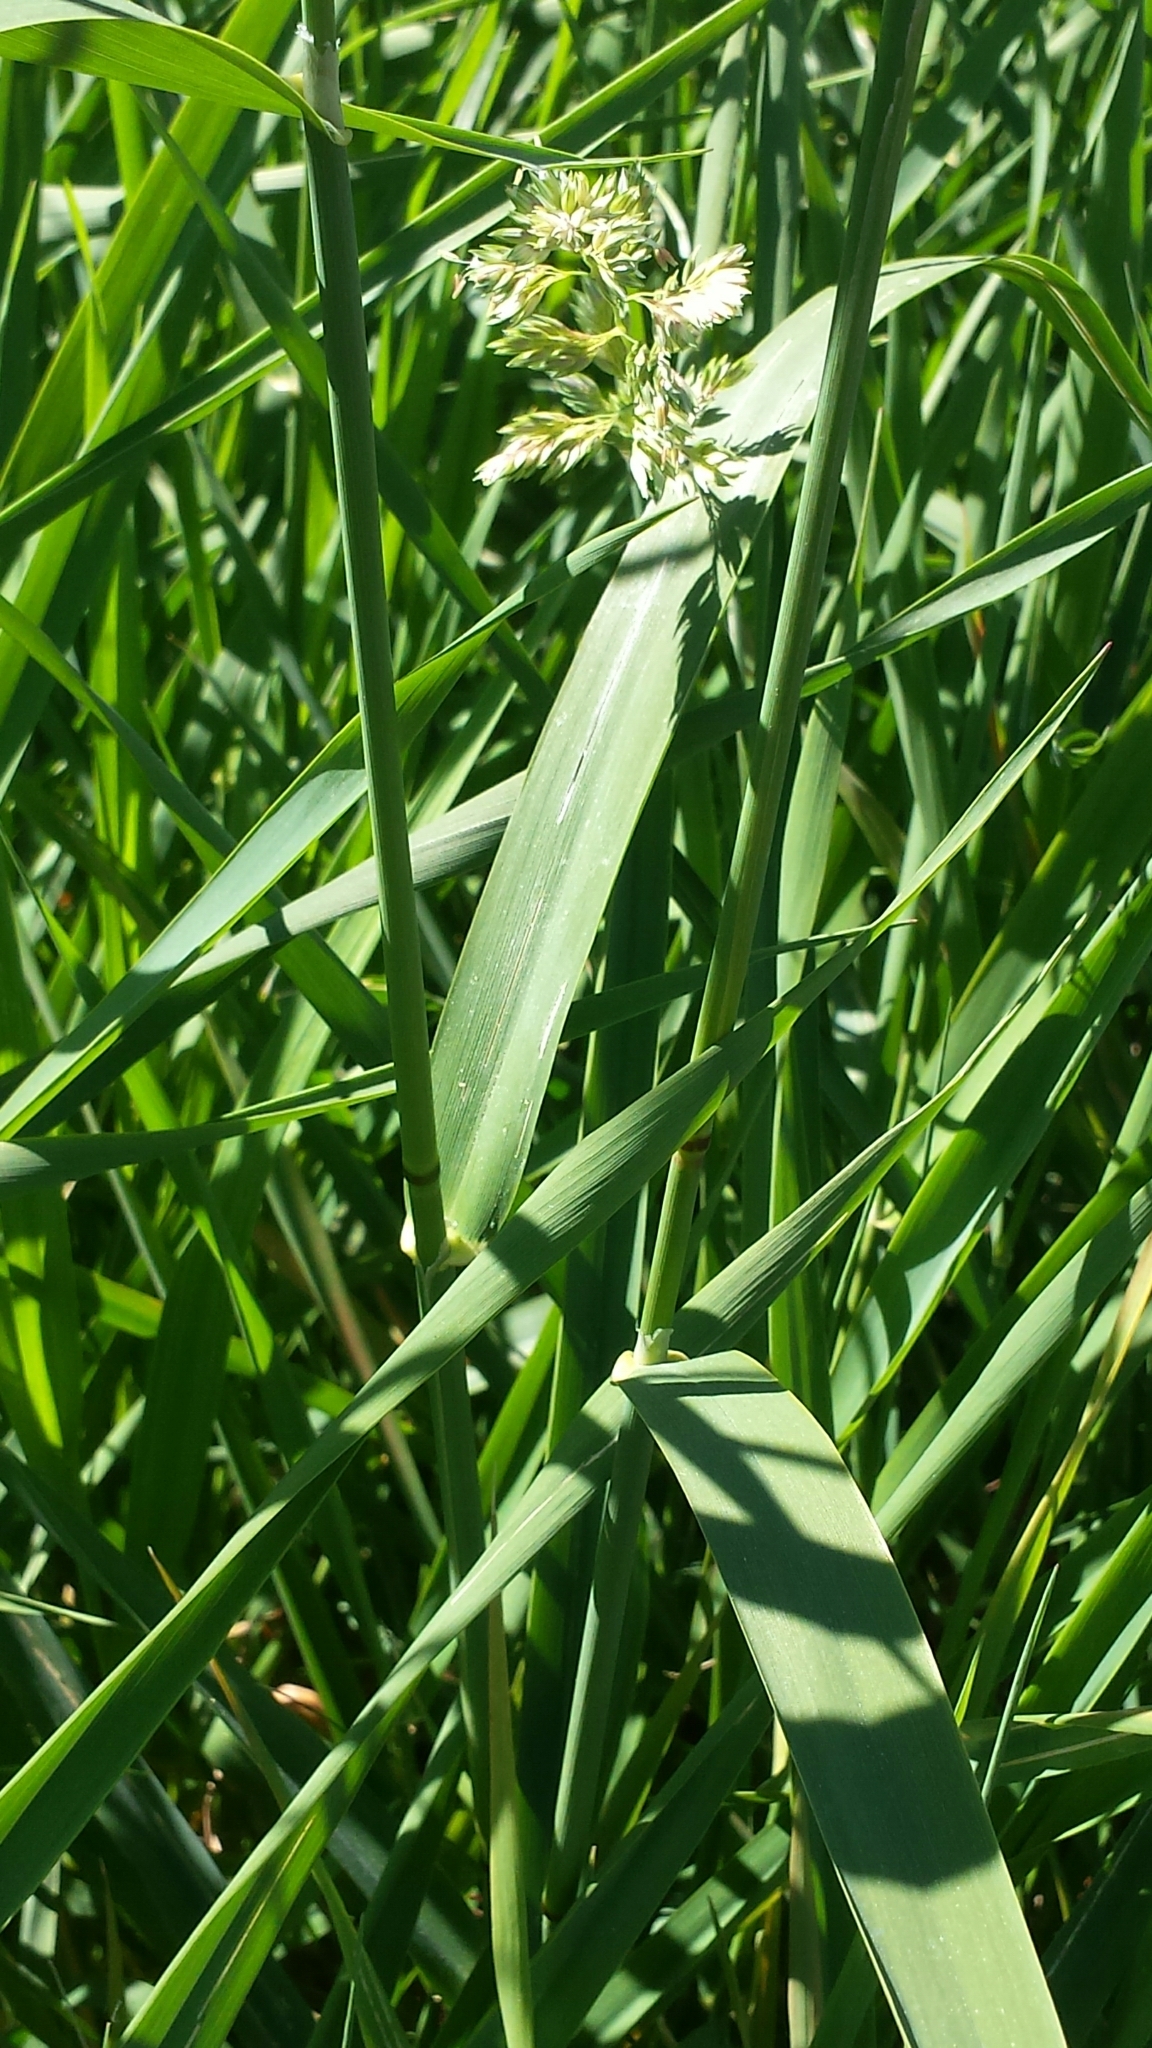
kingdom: Plantae
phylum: Tracheophyta
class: Liliopsida
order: Poales
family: Poaceae
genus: Phalaris
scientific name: Phalaris arundinacea
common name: Reed canary-grass
